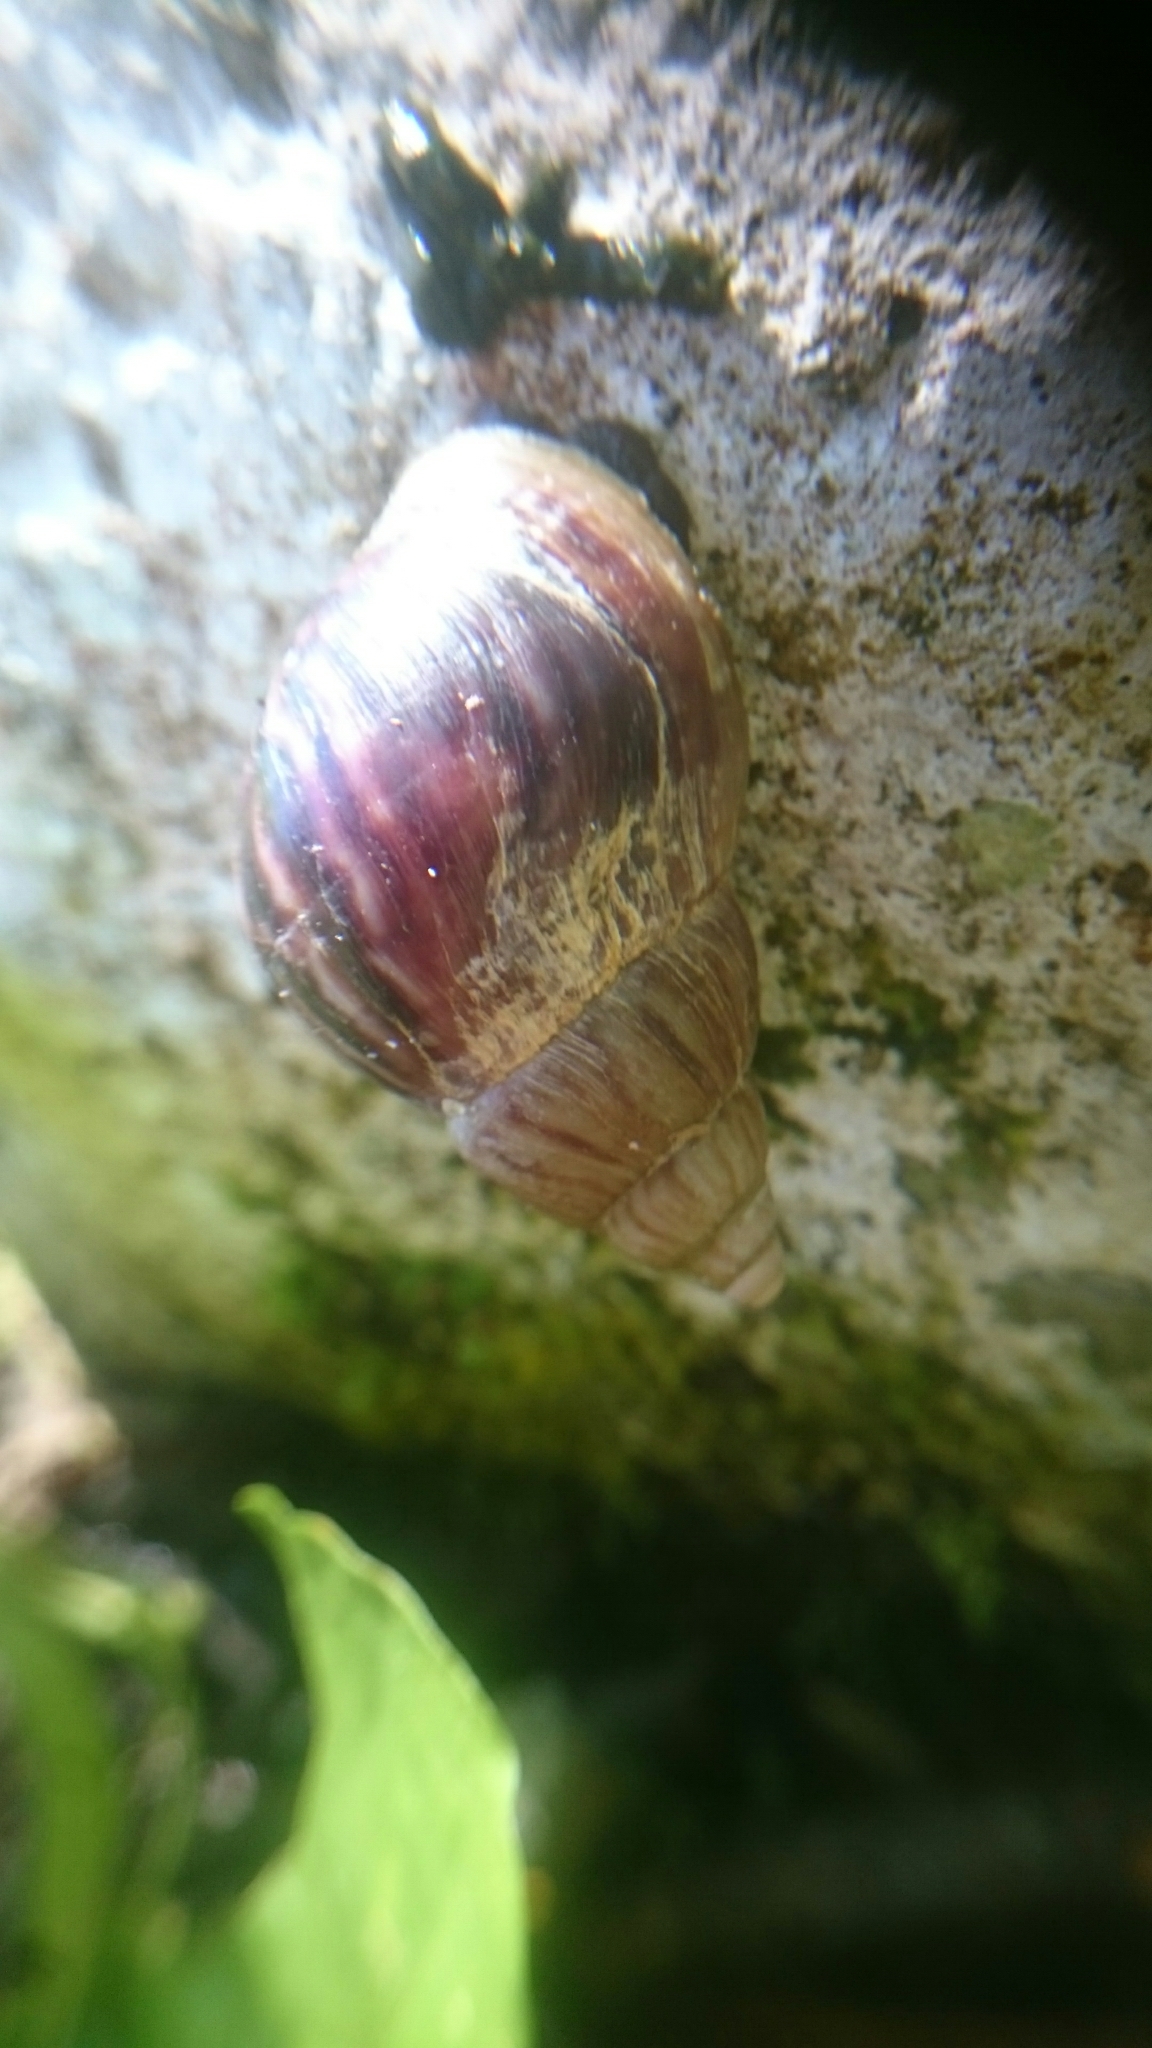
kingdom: Animalia
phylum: Mollusca
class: Gastropoda
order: Stylommatophora
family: Achatinidae
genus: Lissachatina
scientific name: Lissachatina fulica
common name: Giant african snail
